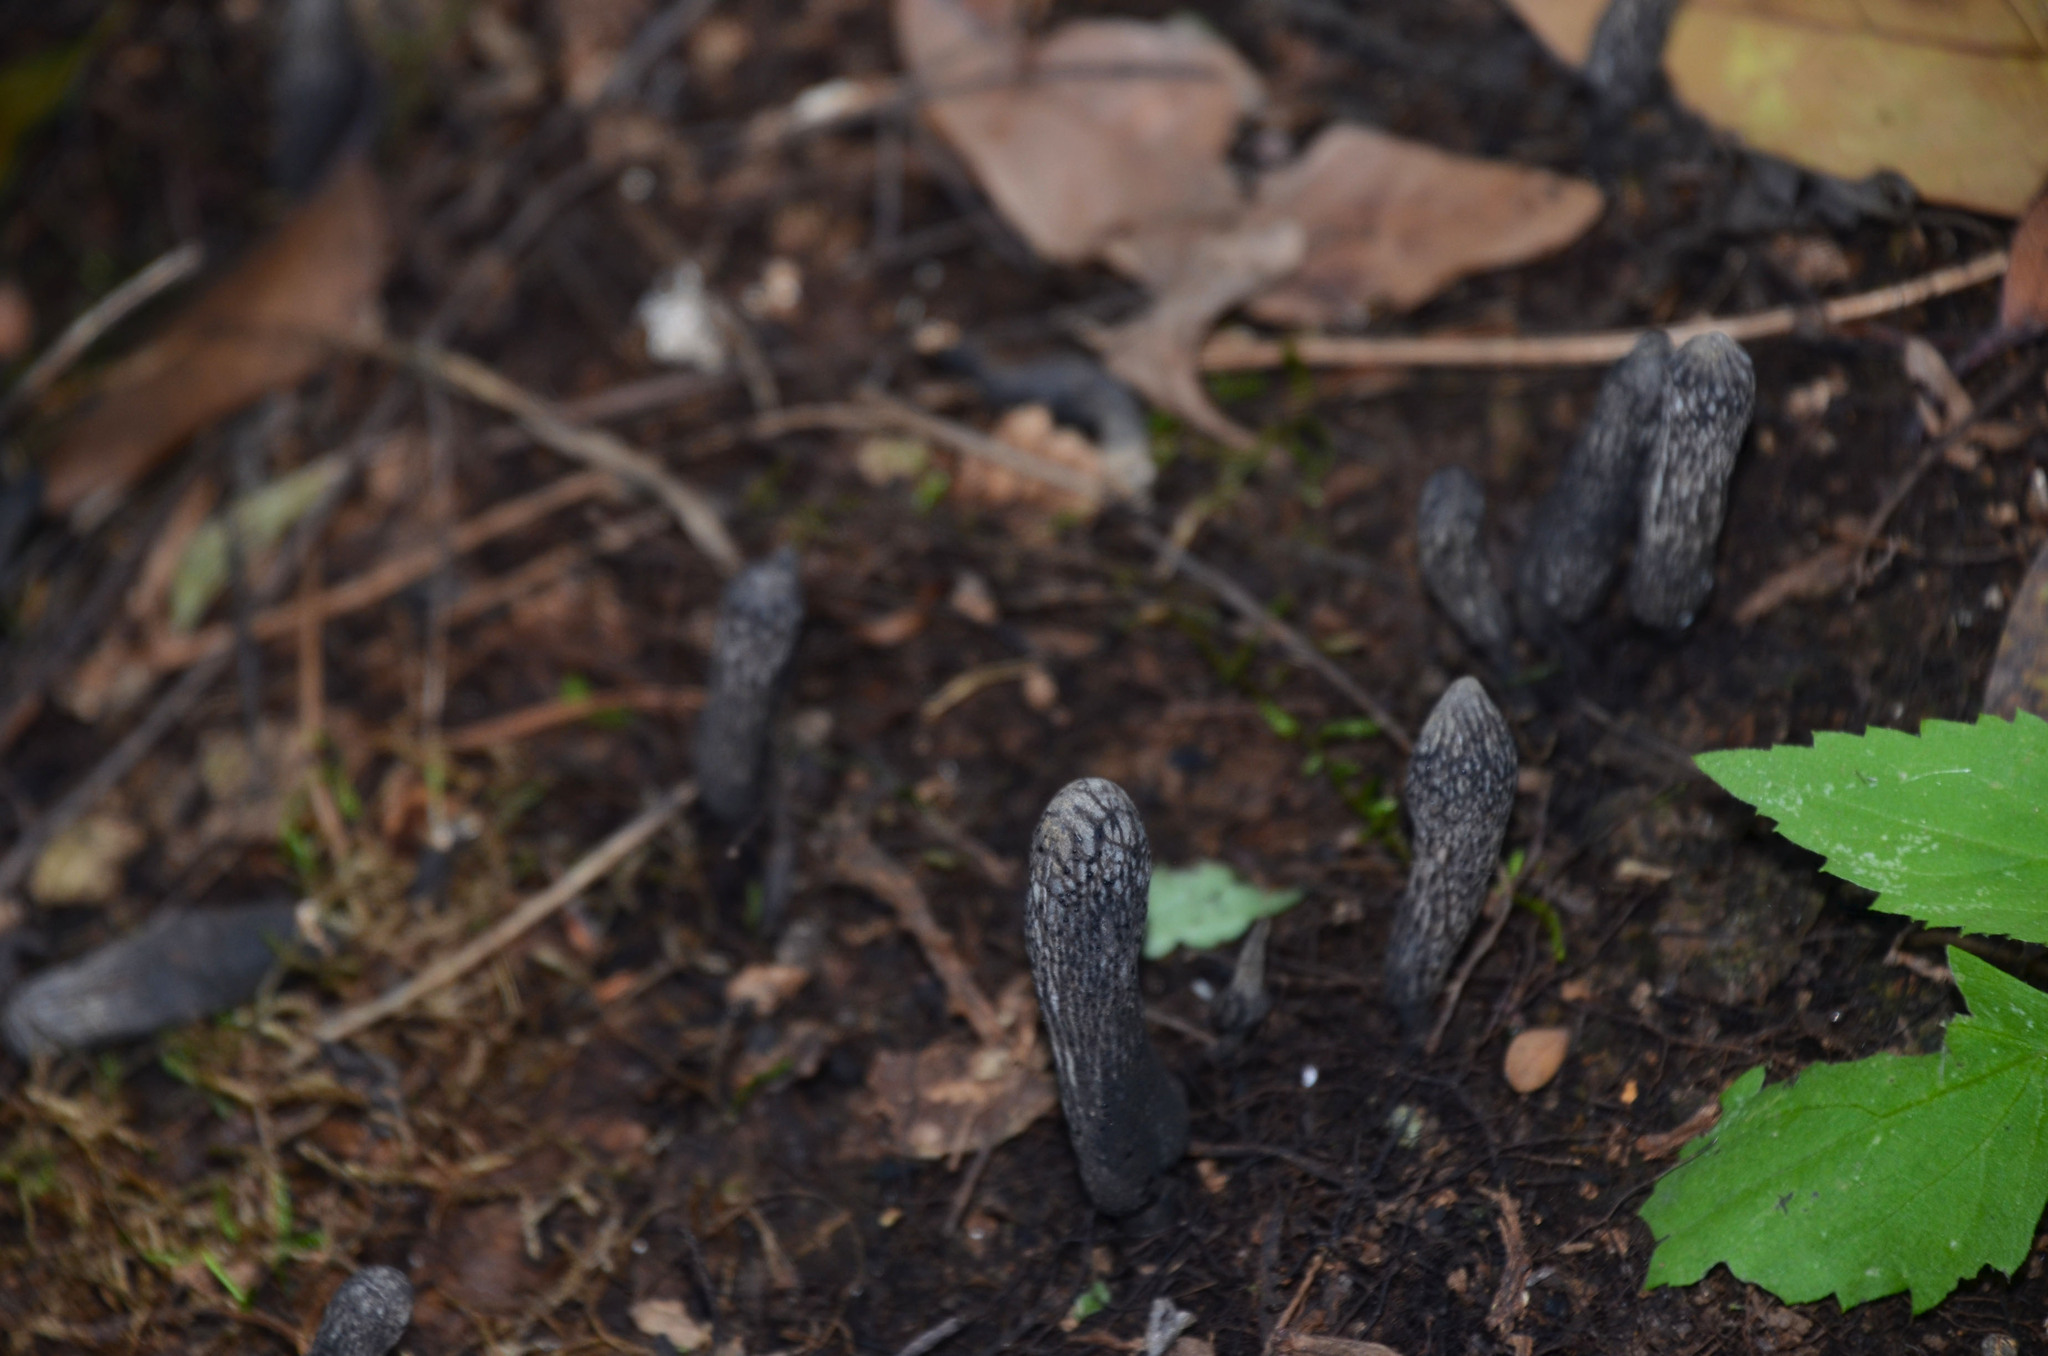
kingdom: Fungi
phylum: Ascomycota
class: Sordariomycetes
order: Xylariales
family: Xylariaceae
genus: Xylaria
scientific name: Xylaria polymorpha
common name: Dead man's fingers
